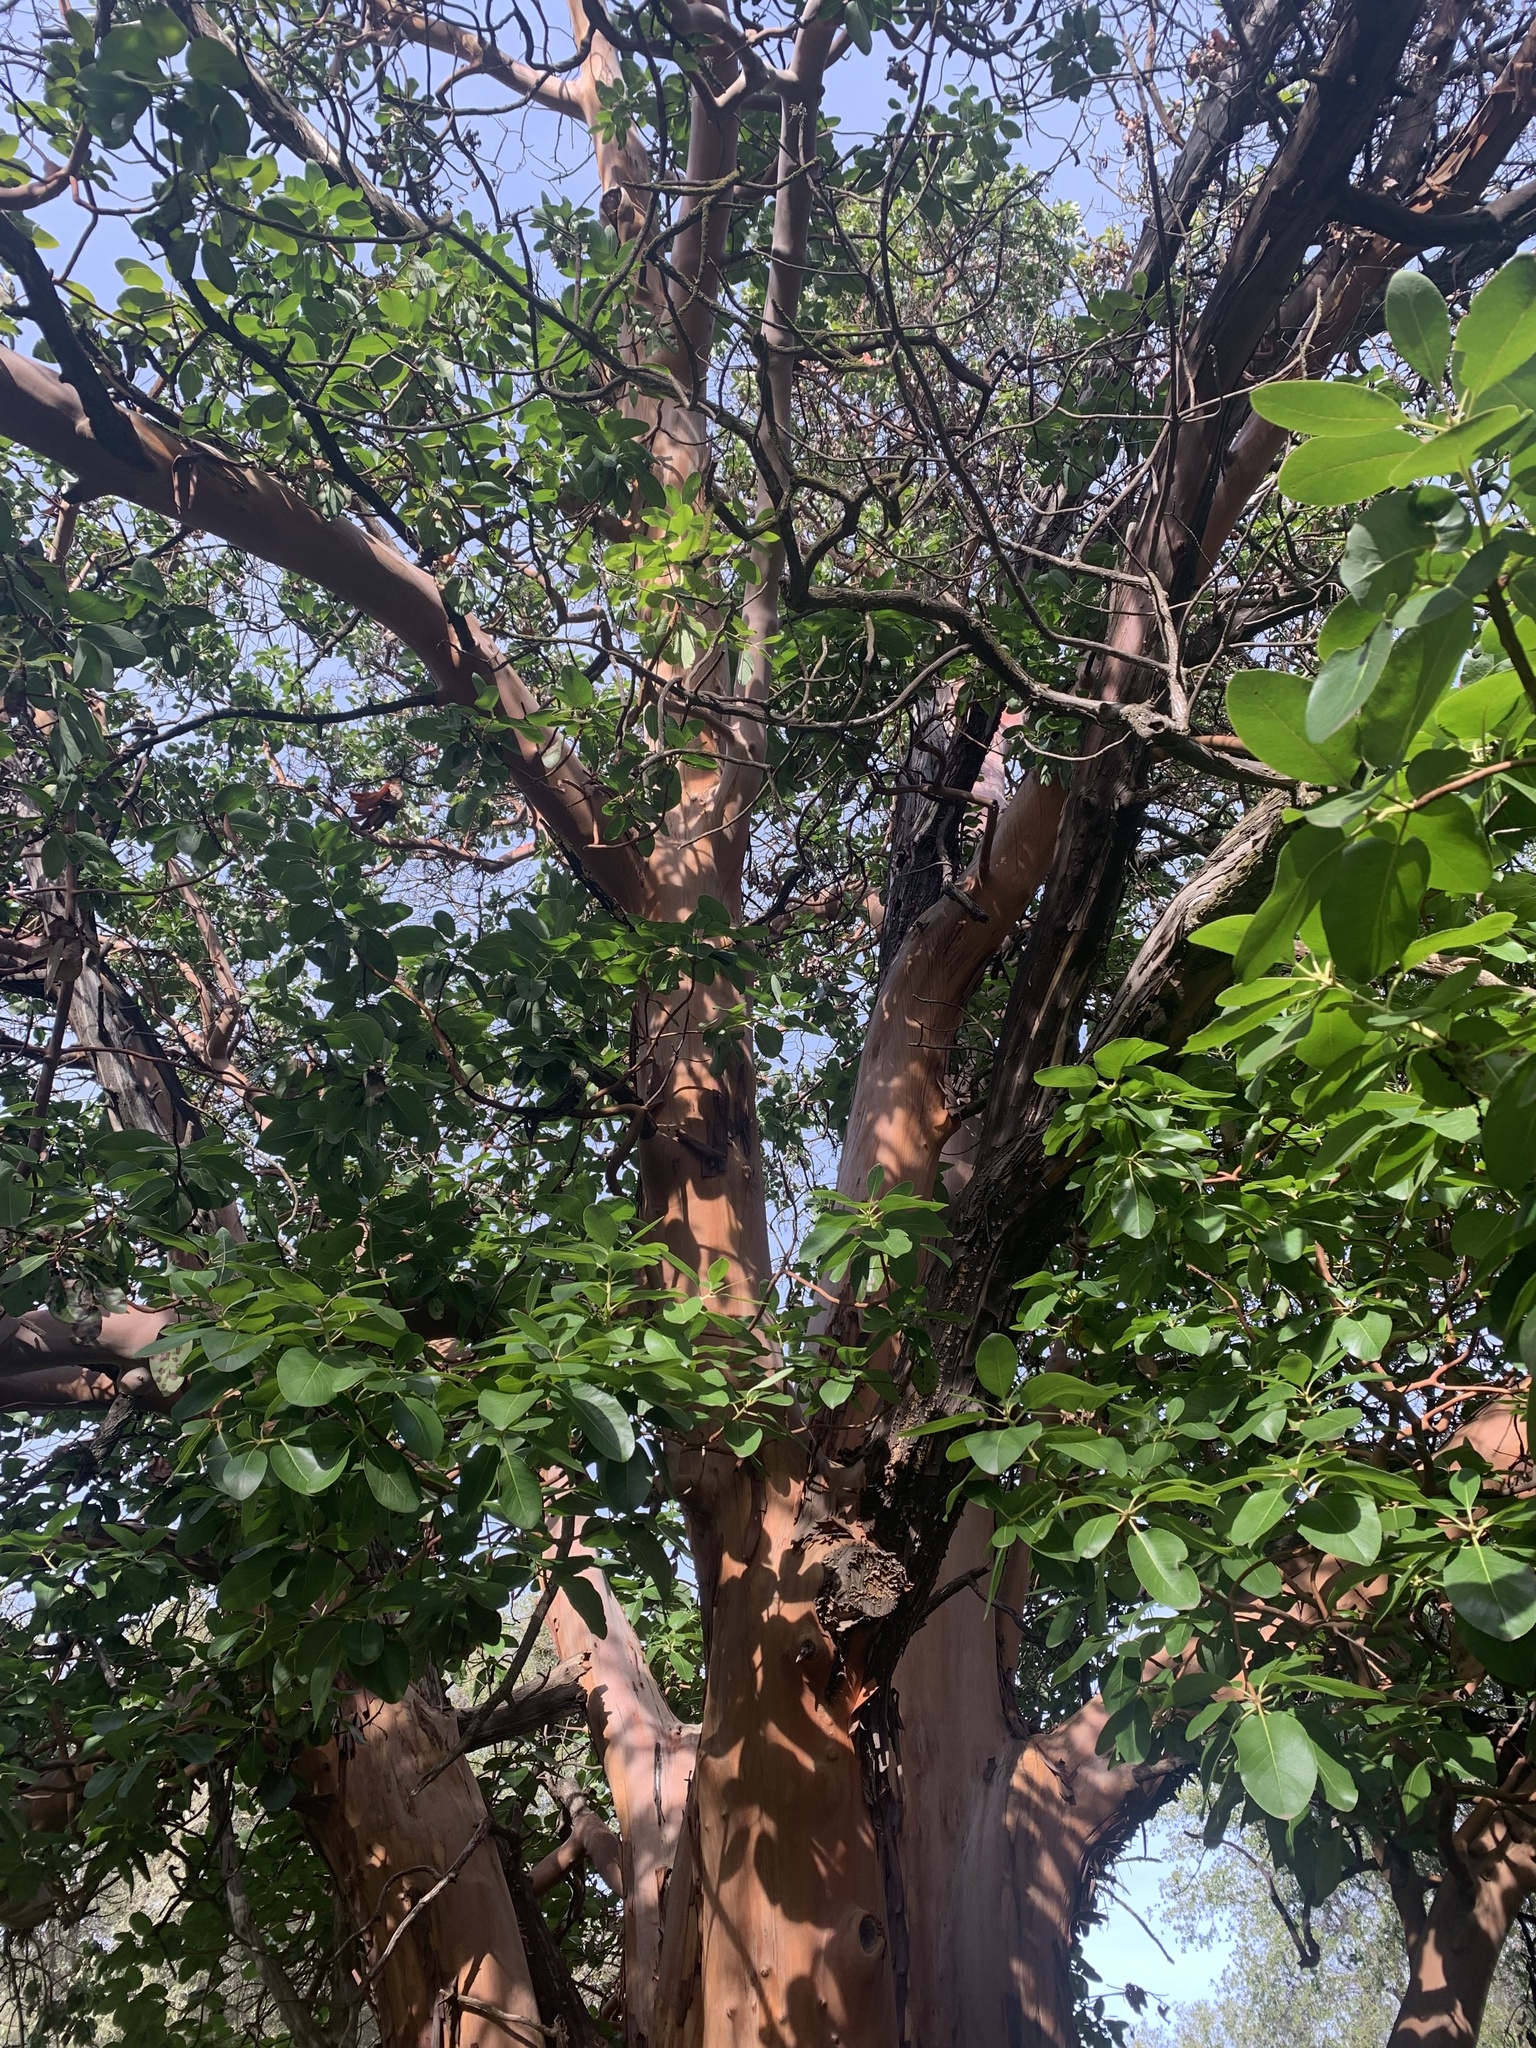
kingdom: Plantae
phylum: Tracheophyta
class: Magnoliopsida
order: Ericales
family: Ericaceae
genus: Arbutus
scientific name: Arbutus menziesii
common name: Pacific madrone
